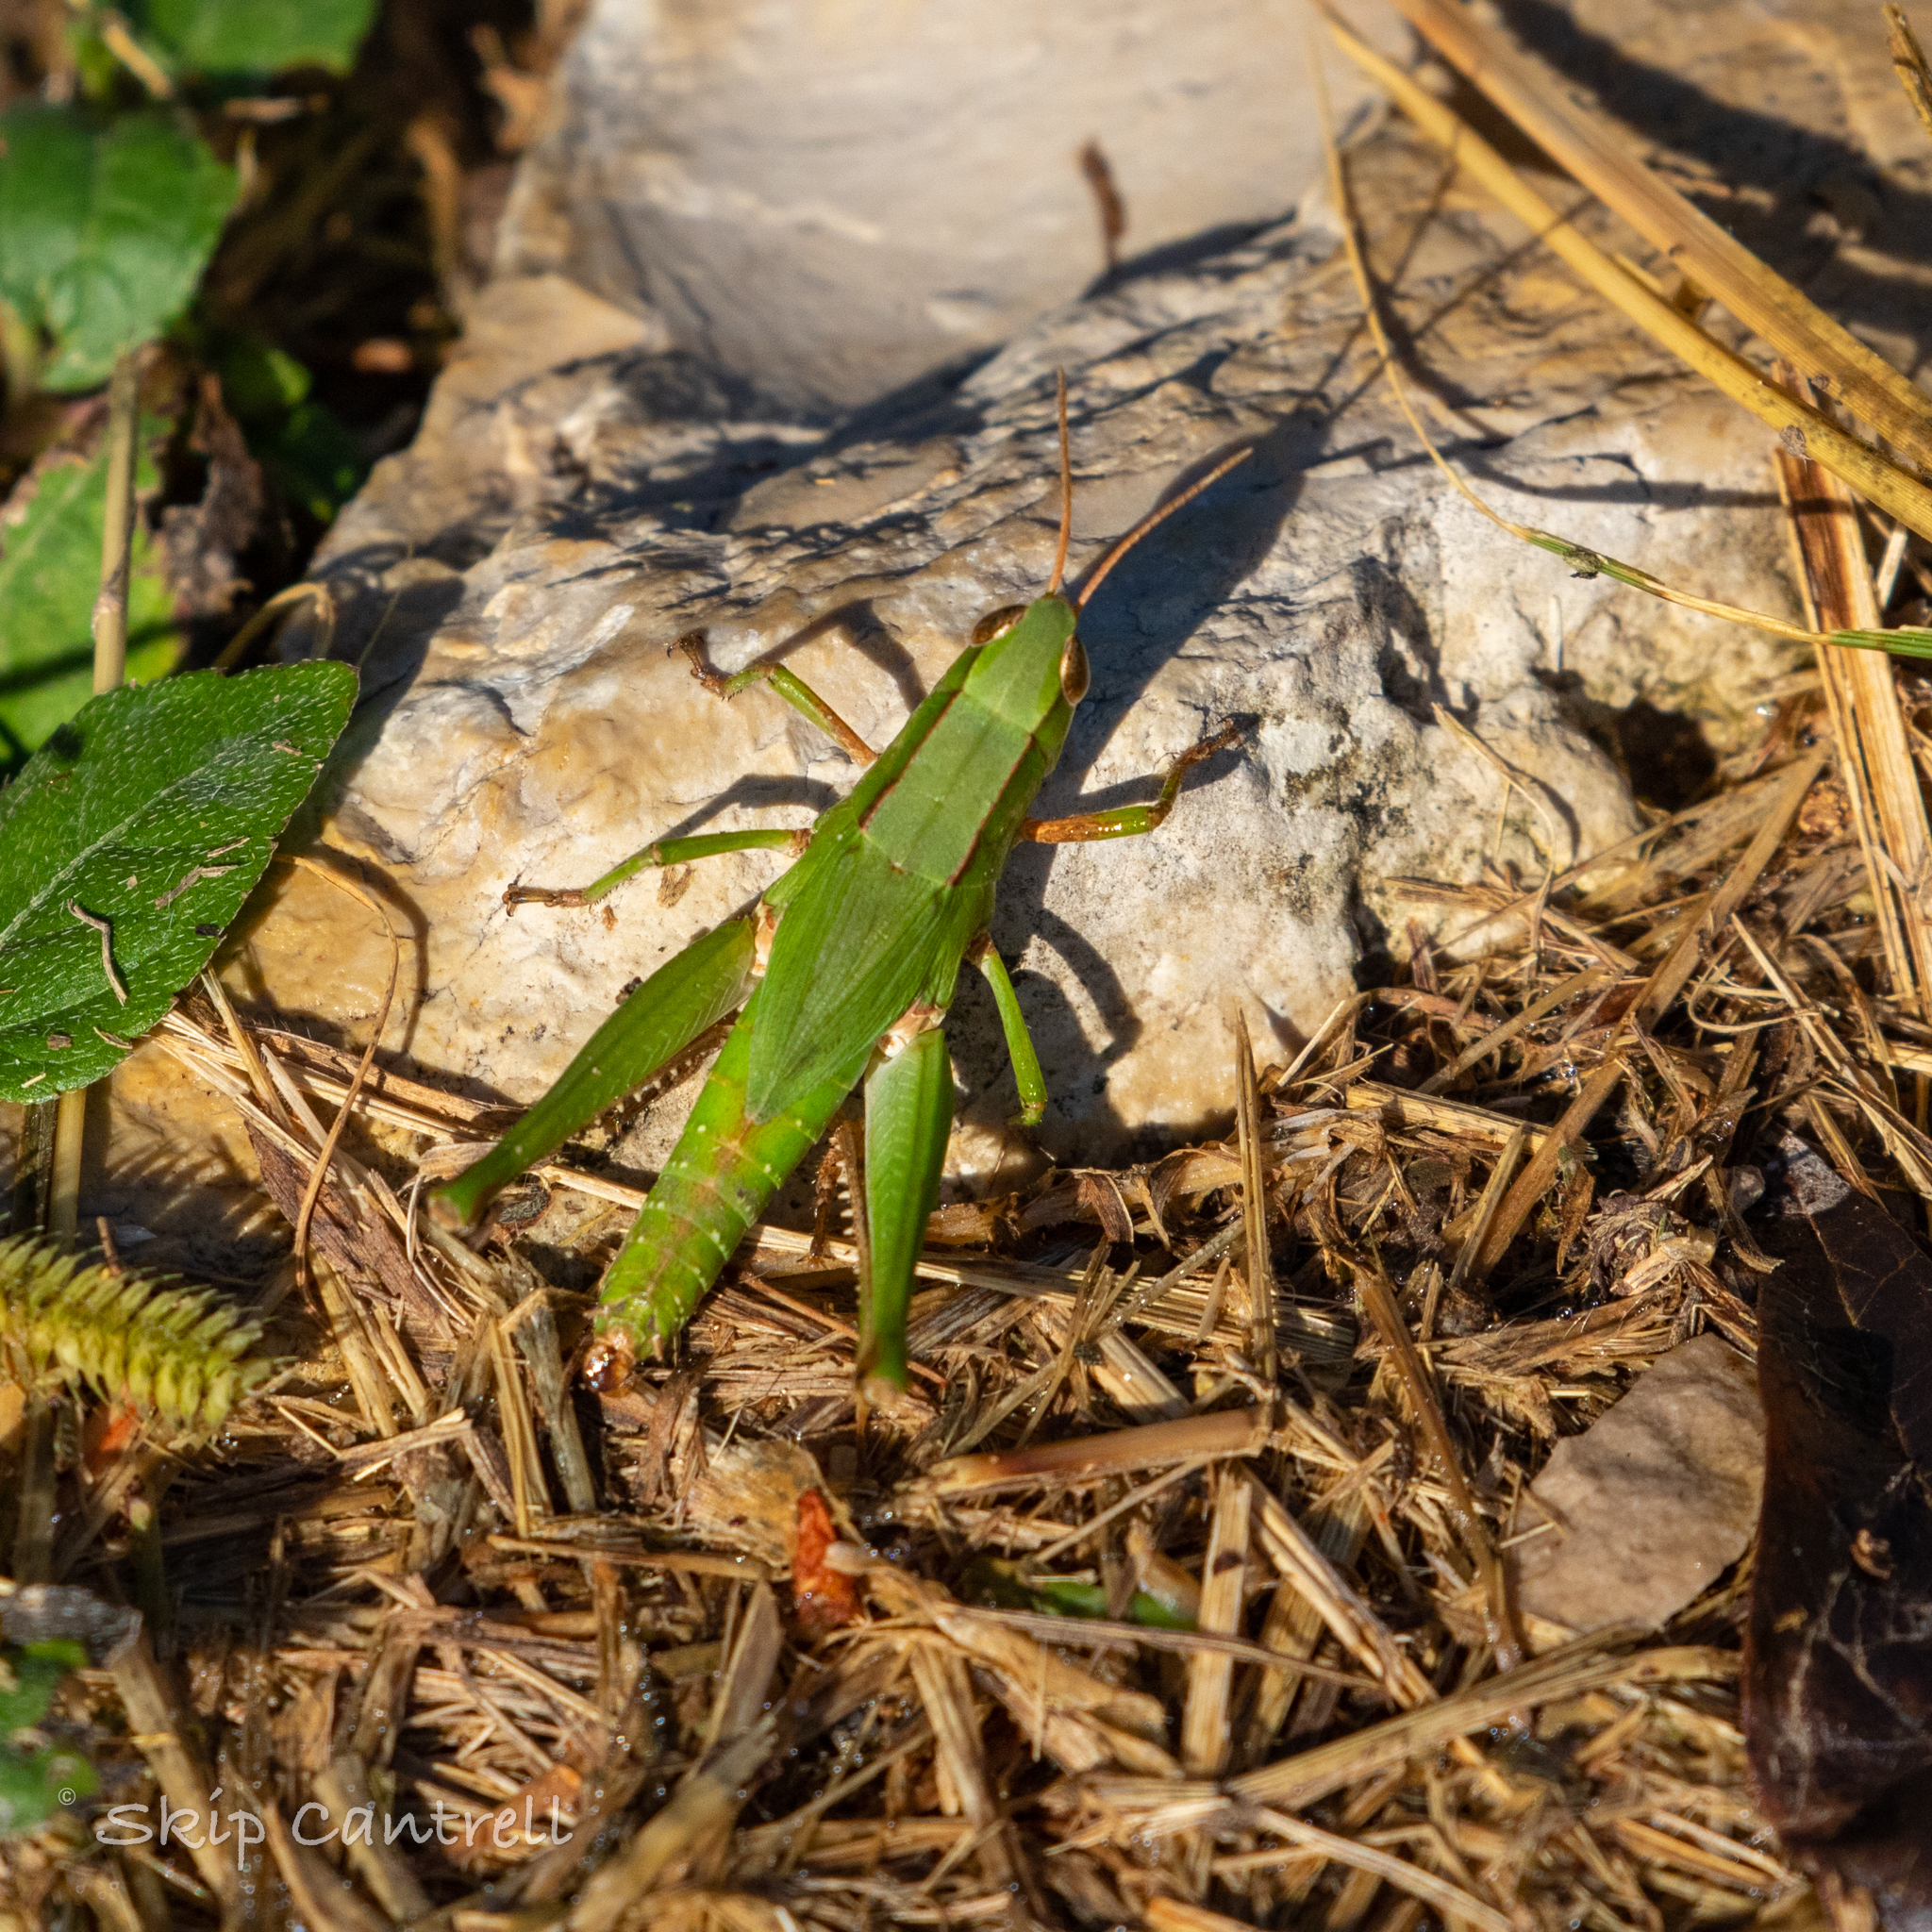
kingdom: Animalia
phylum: Arthropoda
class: Insecta
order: Orthoptera
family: Acrididae
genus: Dichromorpha
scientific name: Dichromorpha viridis
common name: Short-winged green grasshopper
